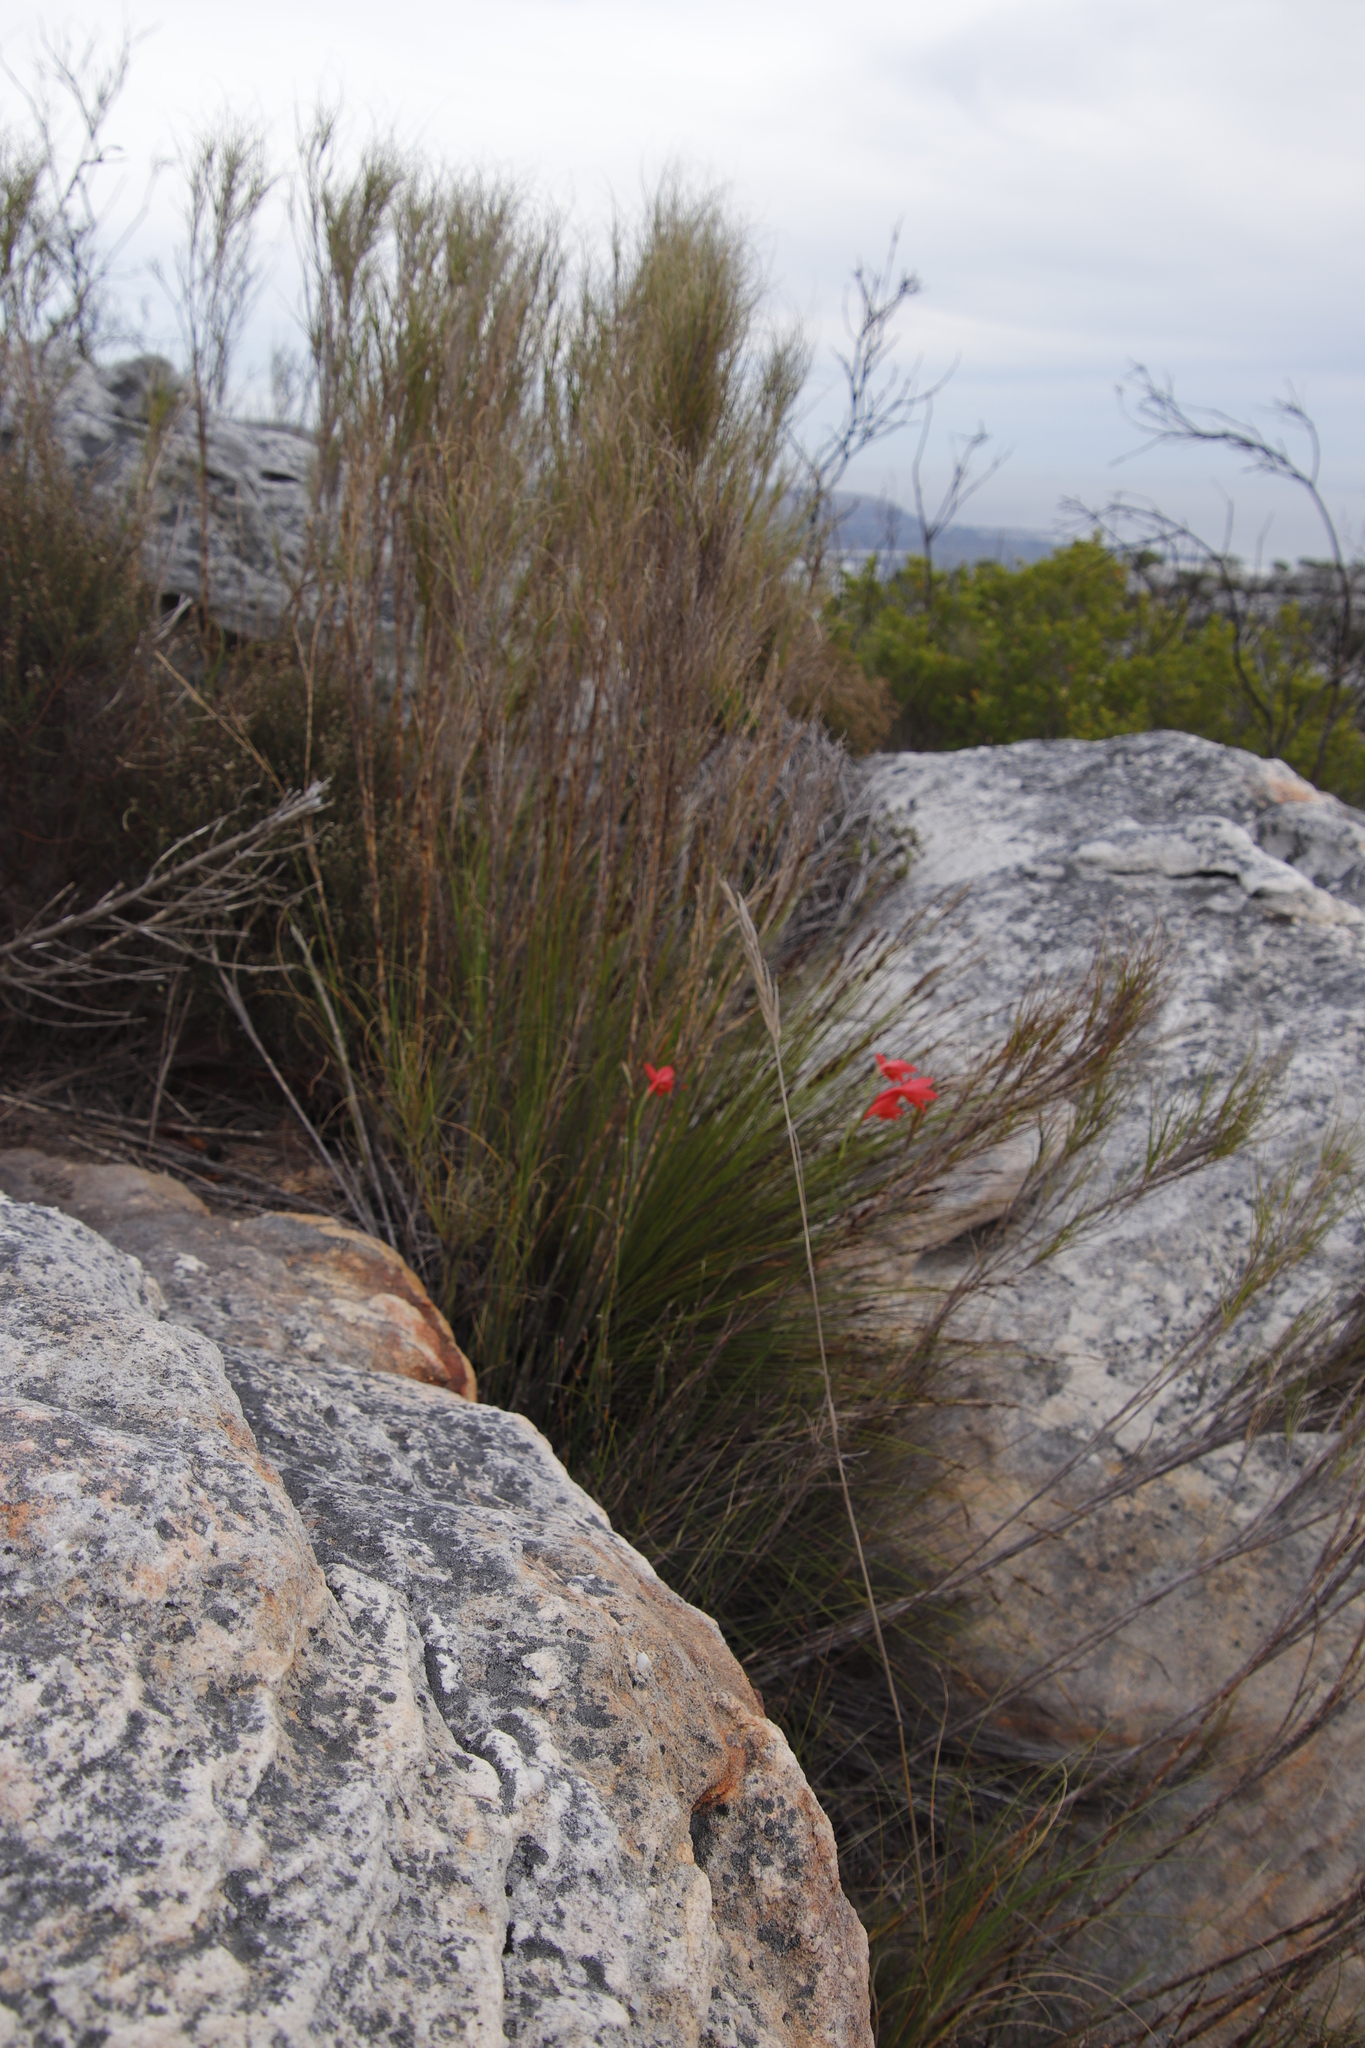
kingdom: Plantae
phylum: Tracheophyta
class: Liliopsida
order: Asparagales
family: Iridaceae
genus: Gladiolus
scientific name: Gladiolus priorii
